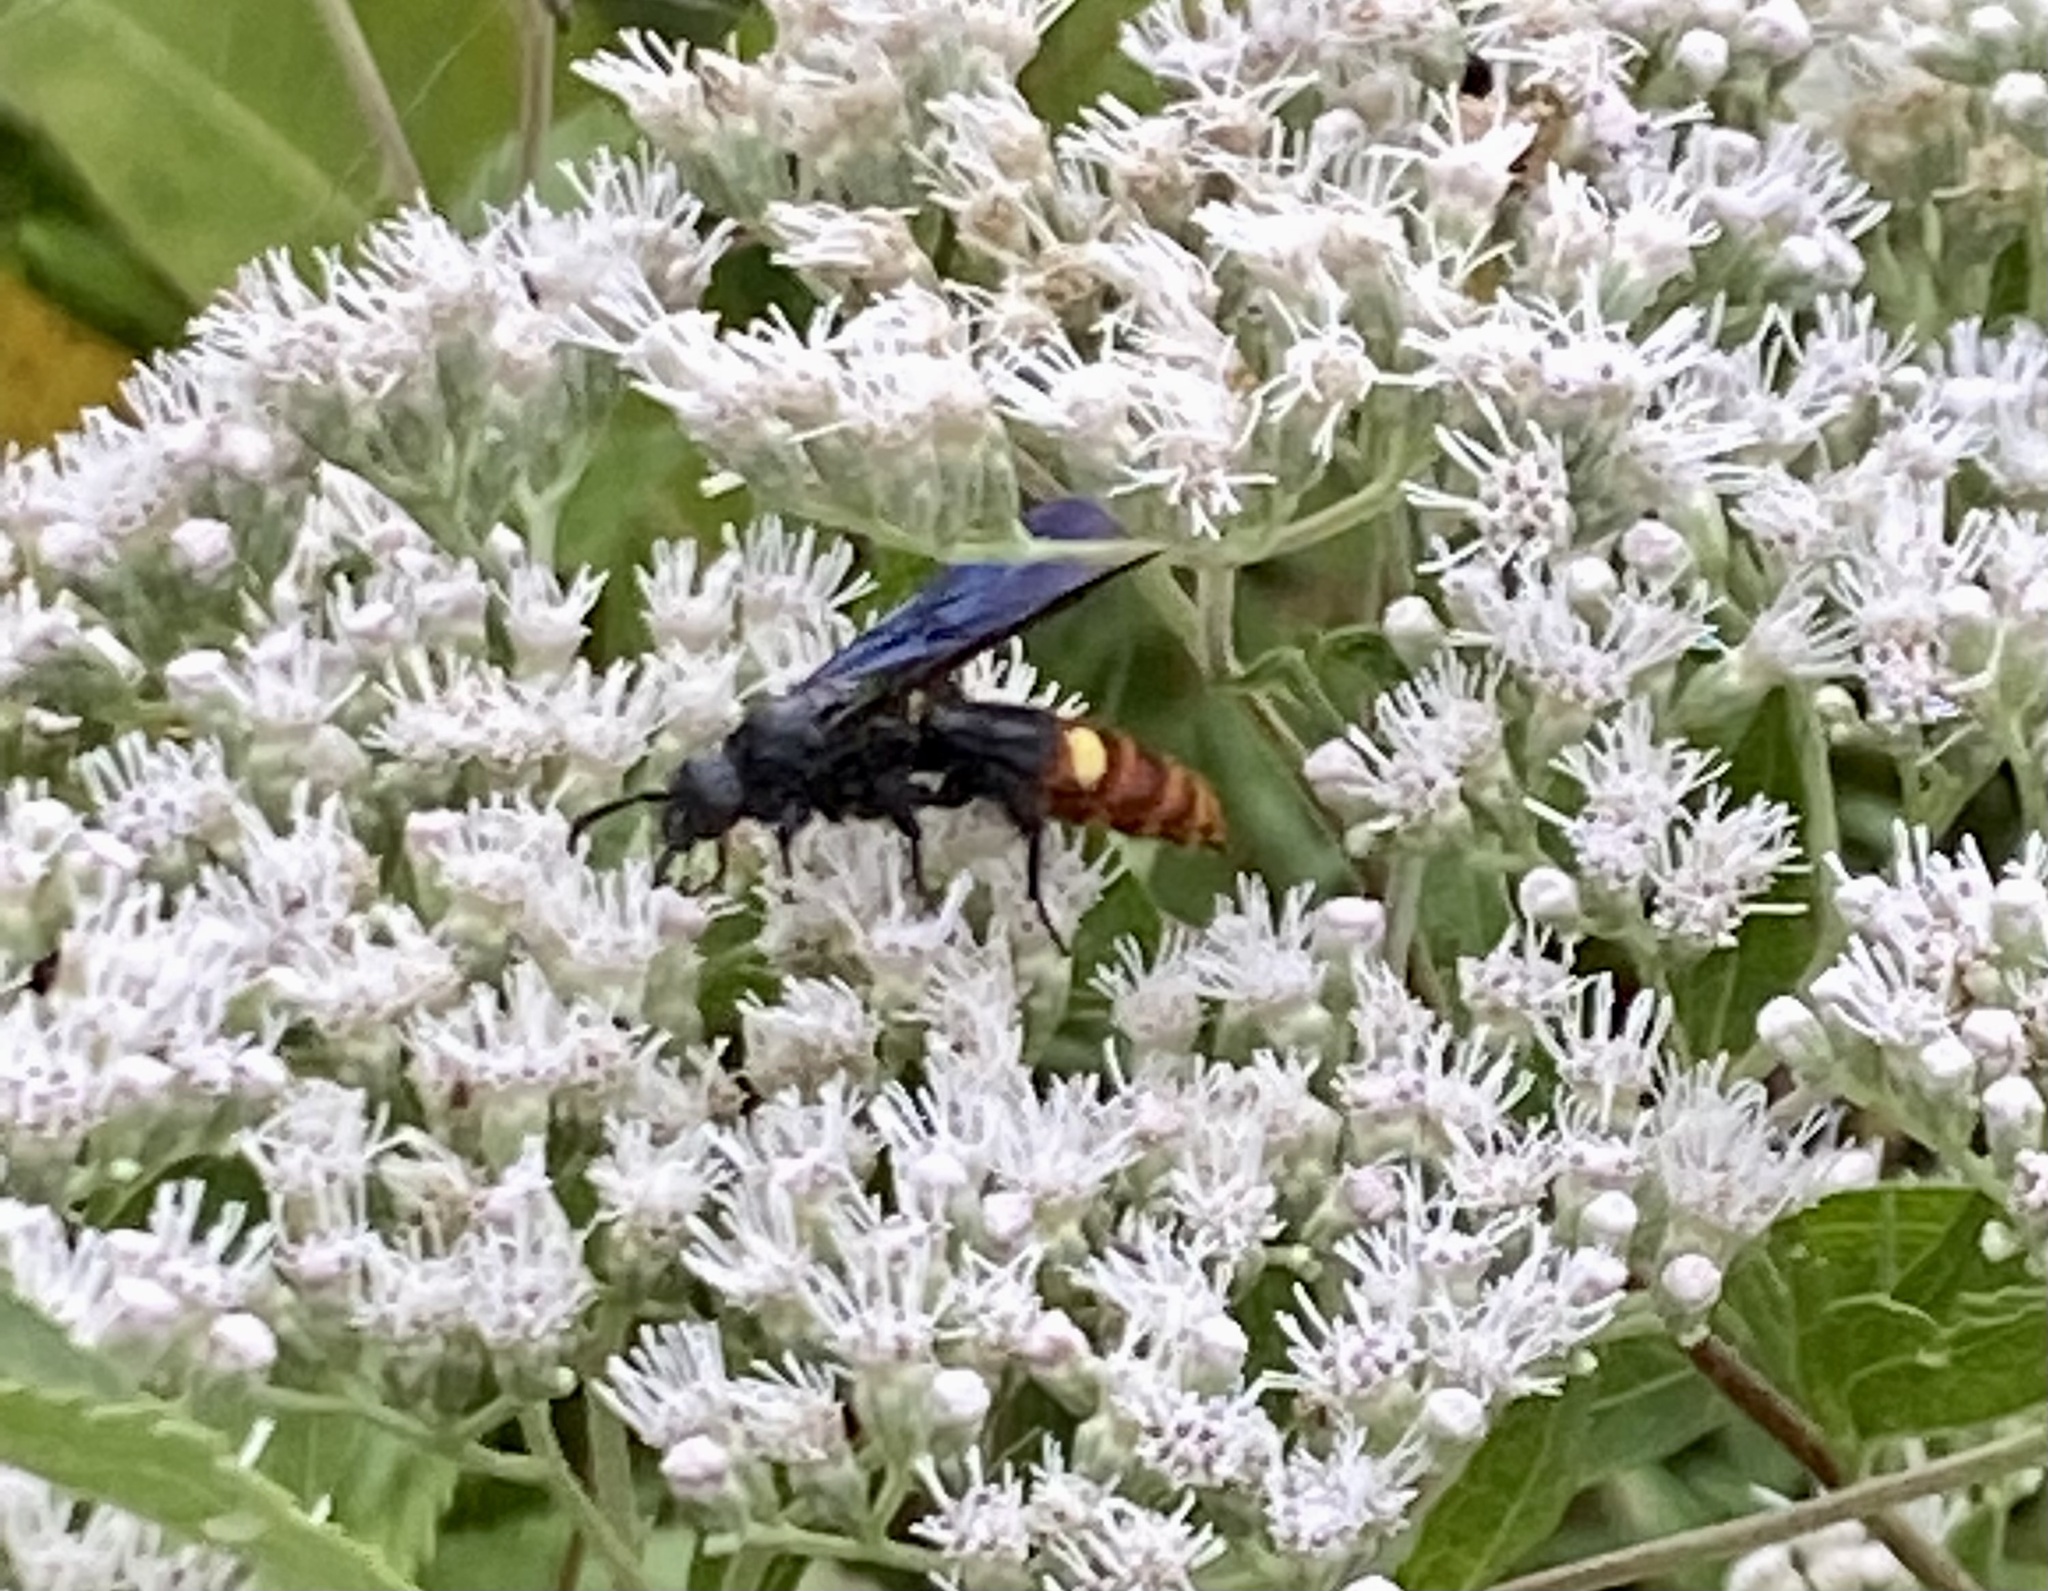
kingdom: Animalia
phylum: Arthropoda
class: Insecta
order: Hymenoptera
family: Scoliidae
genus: Scolia
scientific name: Scolia dubia
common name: Blue-winged scoliid wasp
